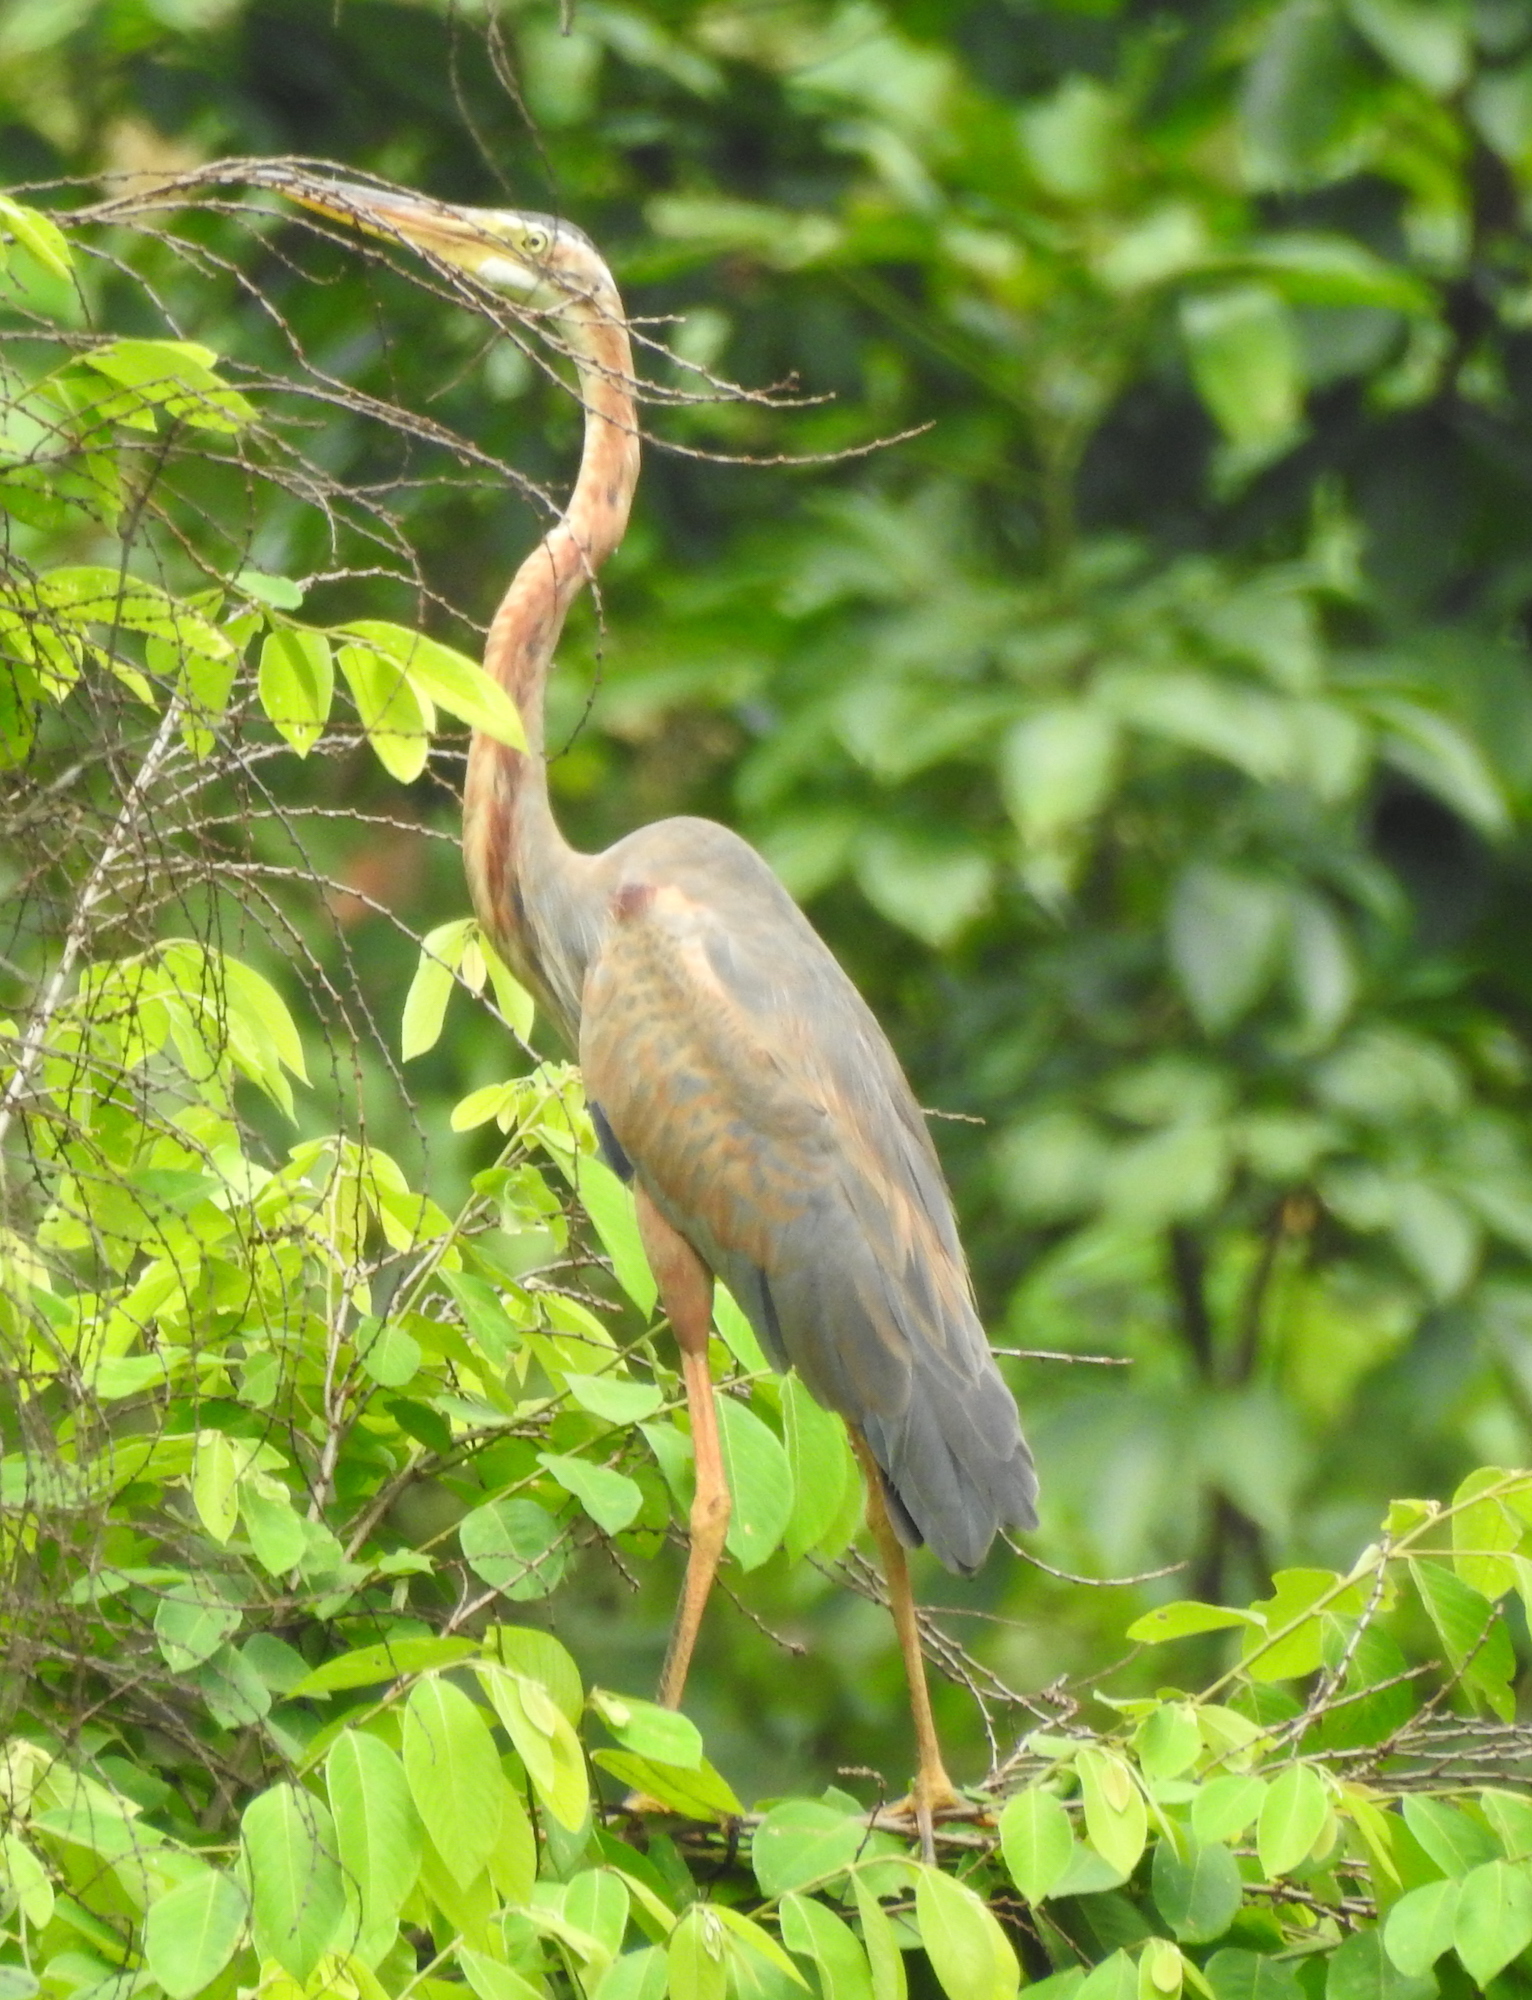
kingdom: Animalia
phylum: Chordata
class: Aves
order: Pelecaniformes
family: Ardeidae
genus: Ardea
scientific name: Ardea purpurea
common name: Purple heron
